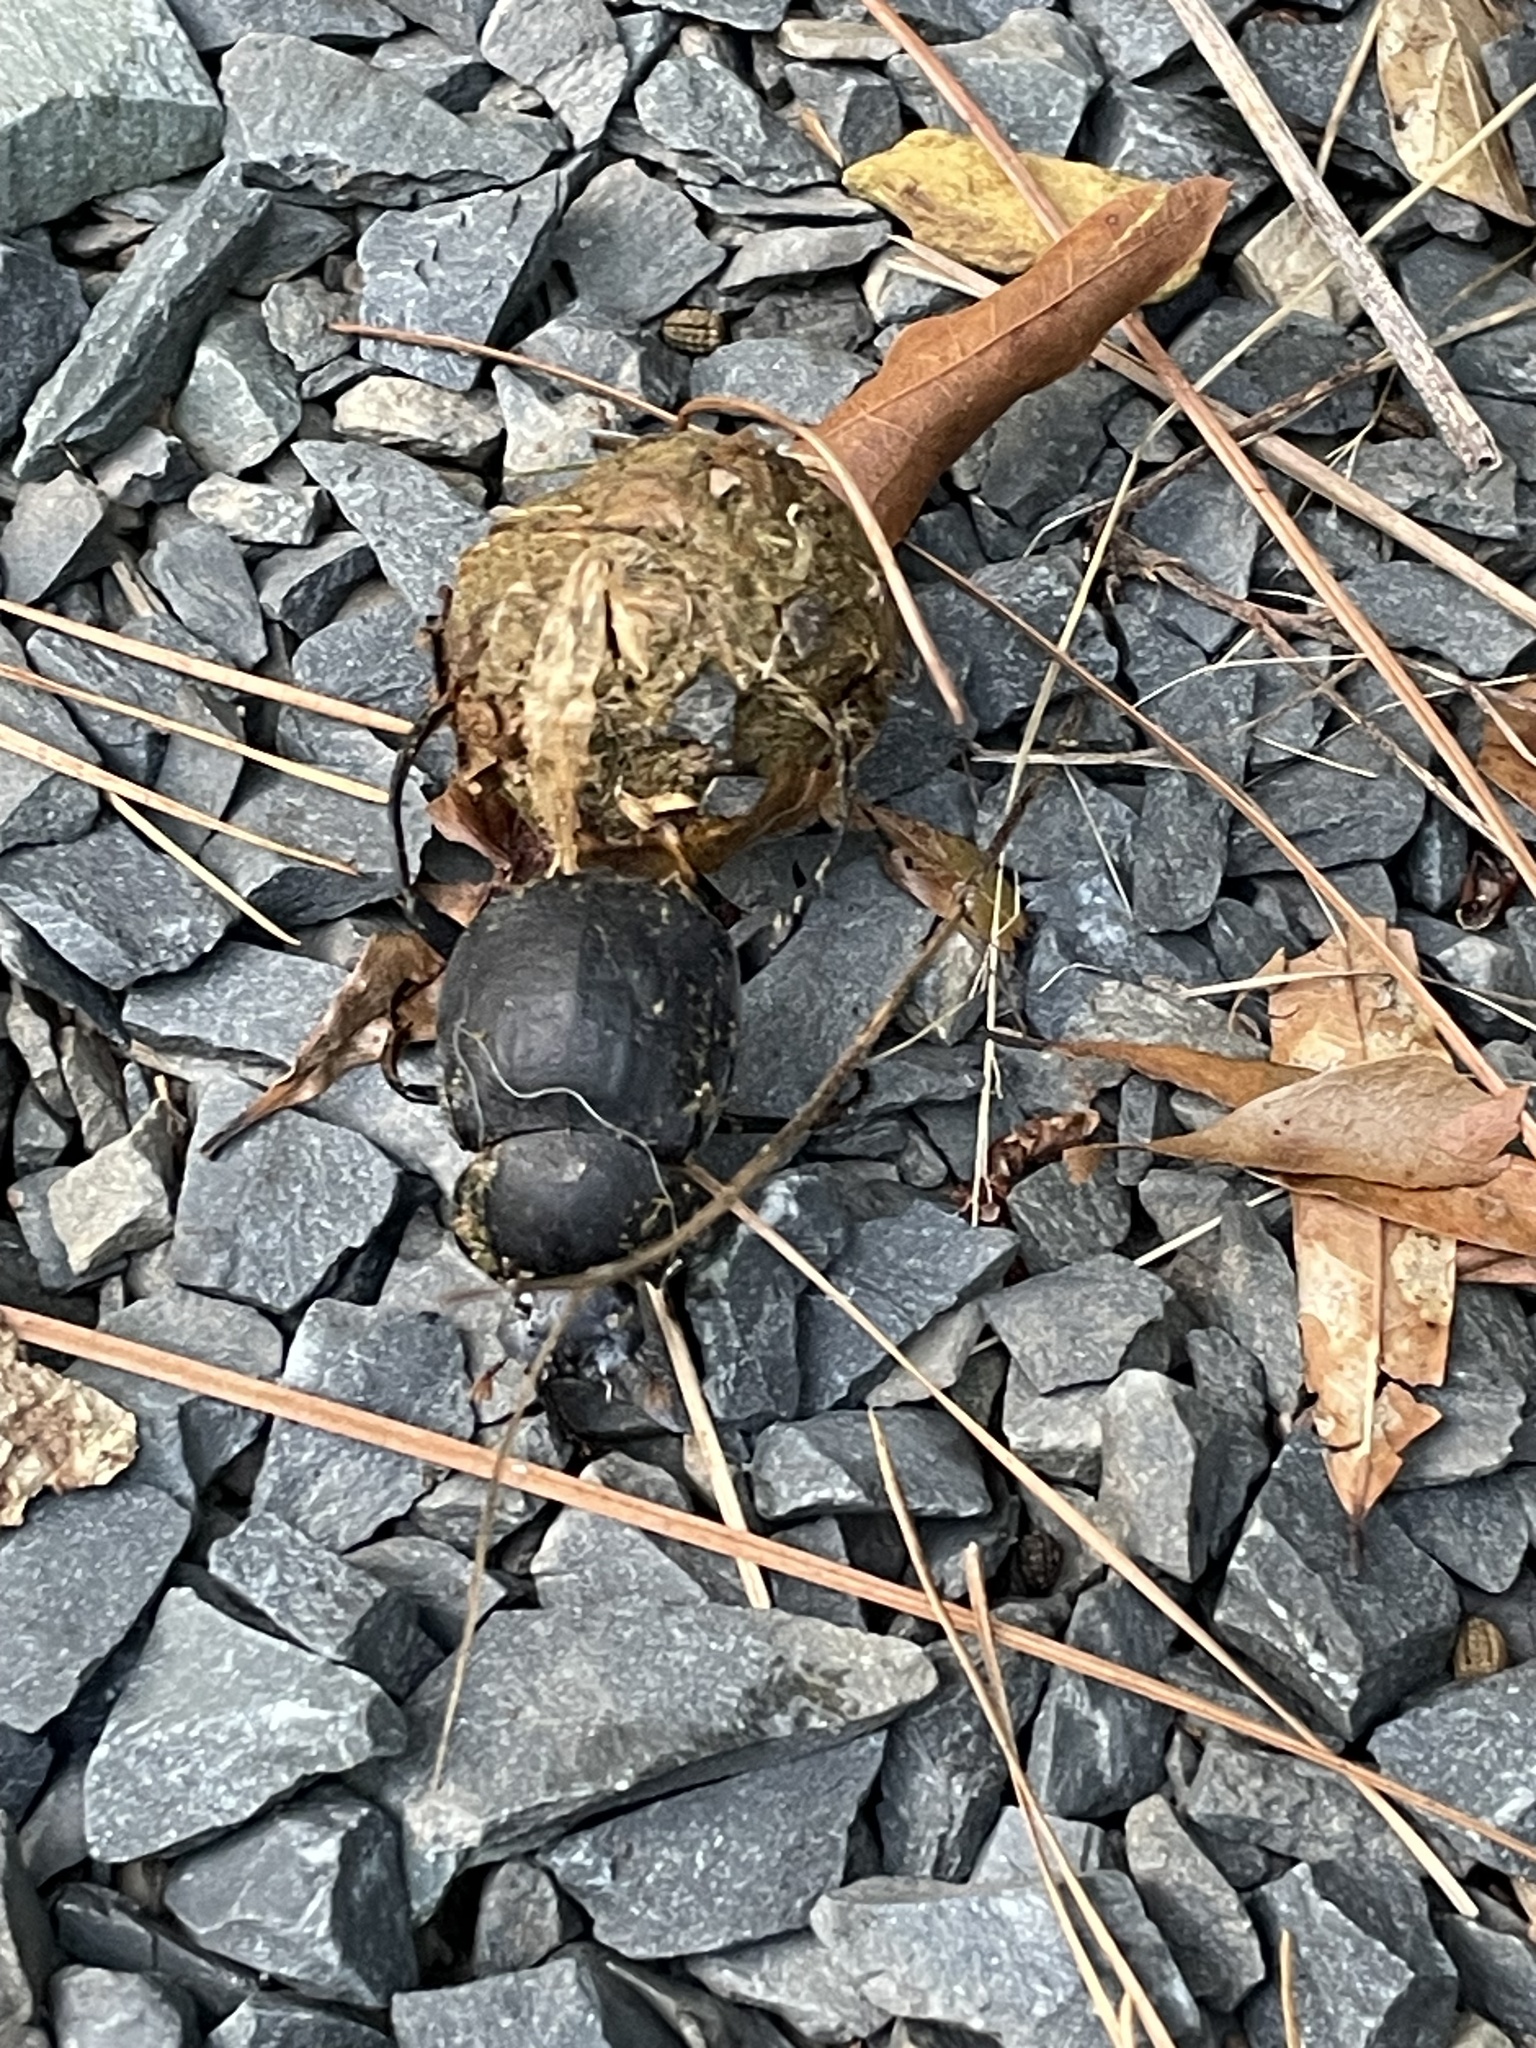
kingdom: Animalia
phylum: Arthropoda
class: Insecta
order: Coleoptera
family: Scarabaeidae
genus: Deltochilum
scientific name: Deltochilum gibbosum
